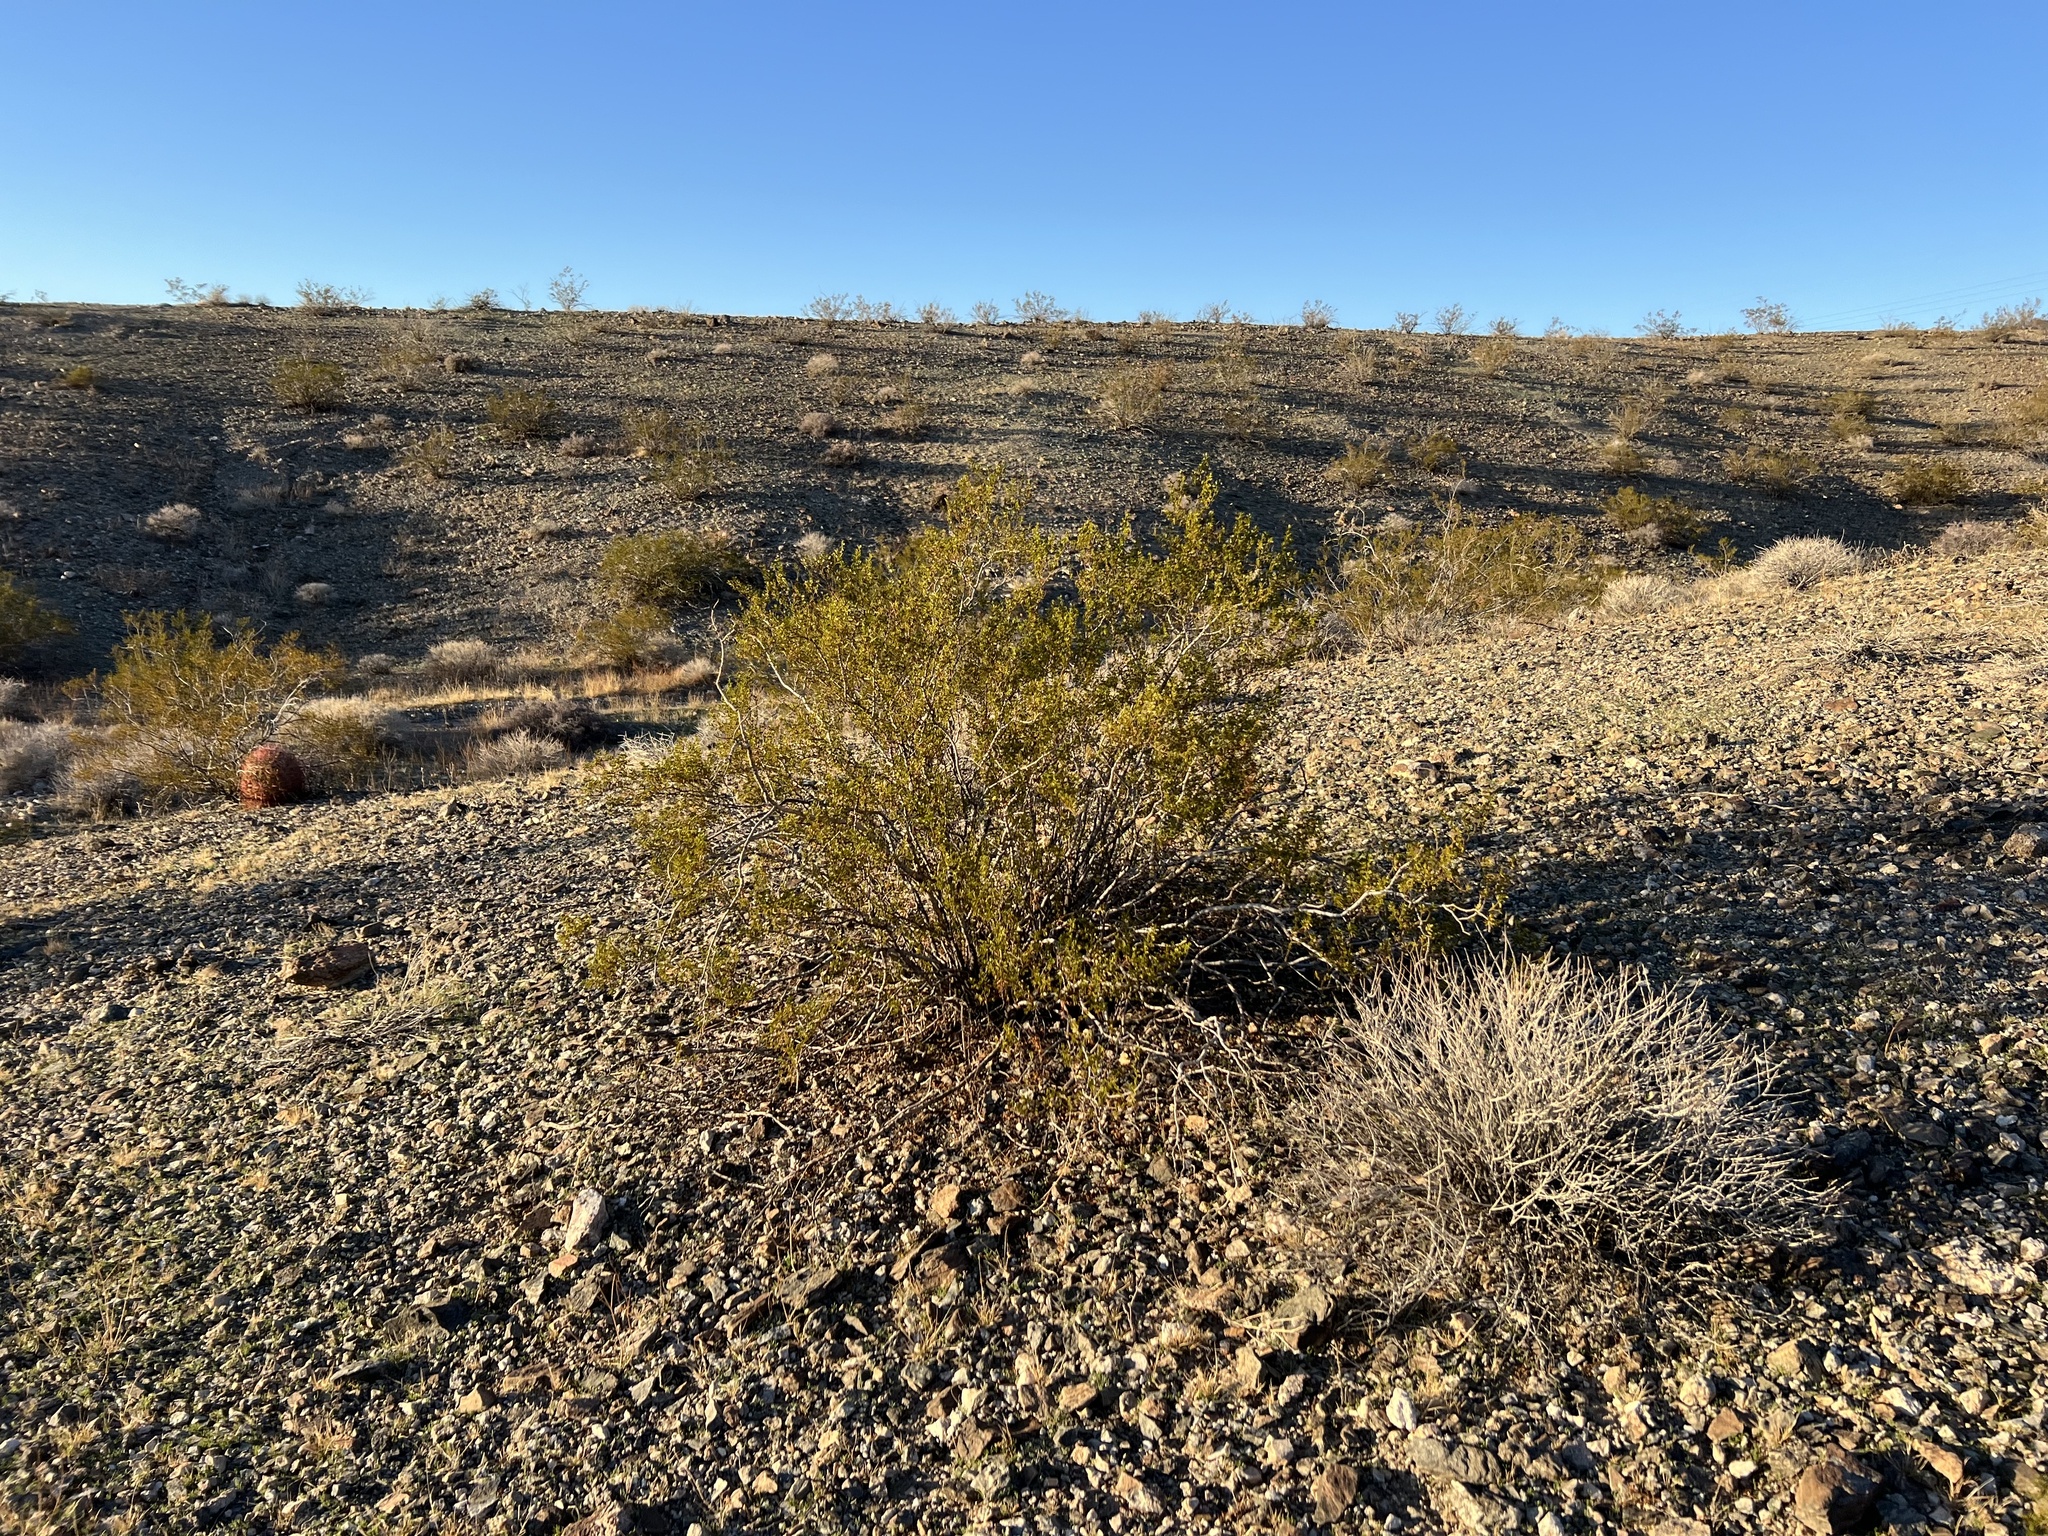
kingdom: Plantae
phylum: Tracheophyta
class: Magnoliopsida
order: Zygophyllales
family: Zygophyllaceae
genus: Larrea
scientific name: Larrea tridentata
